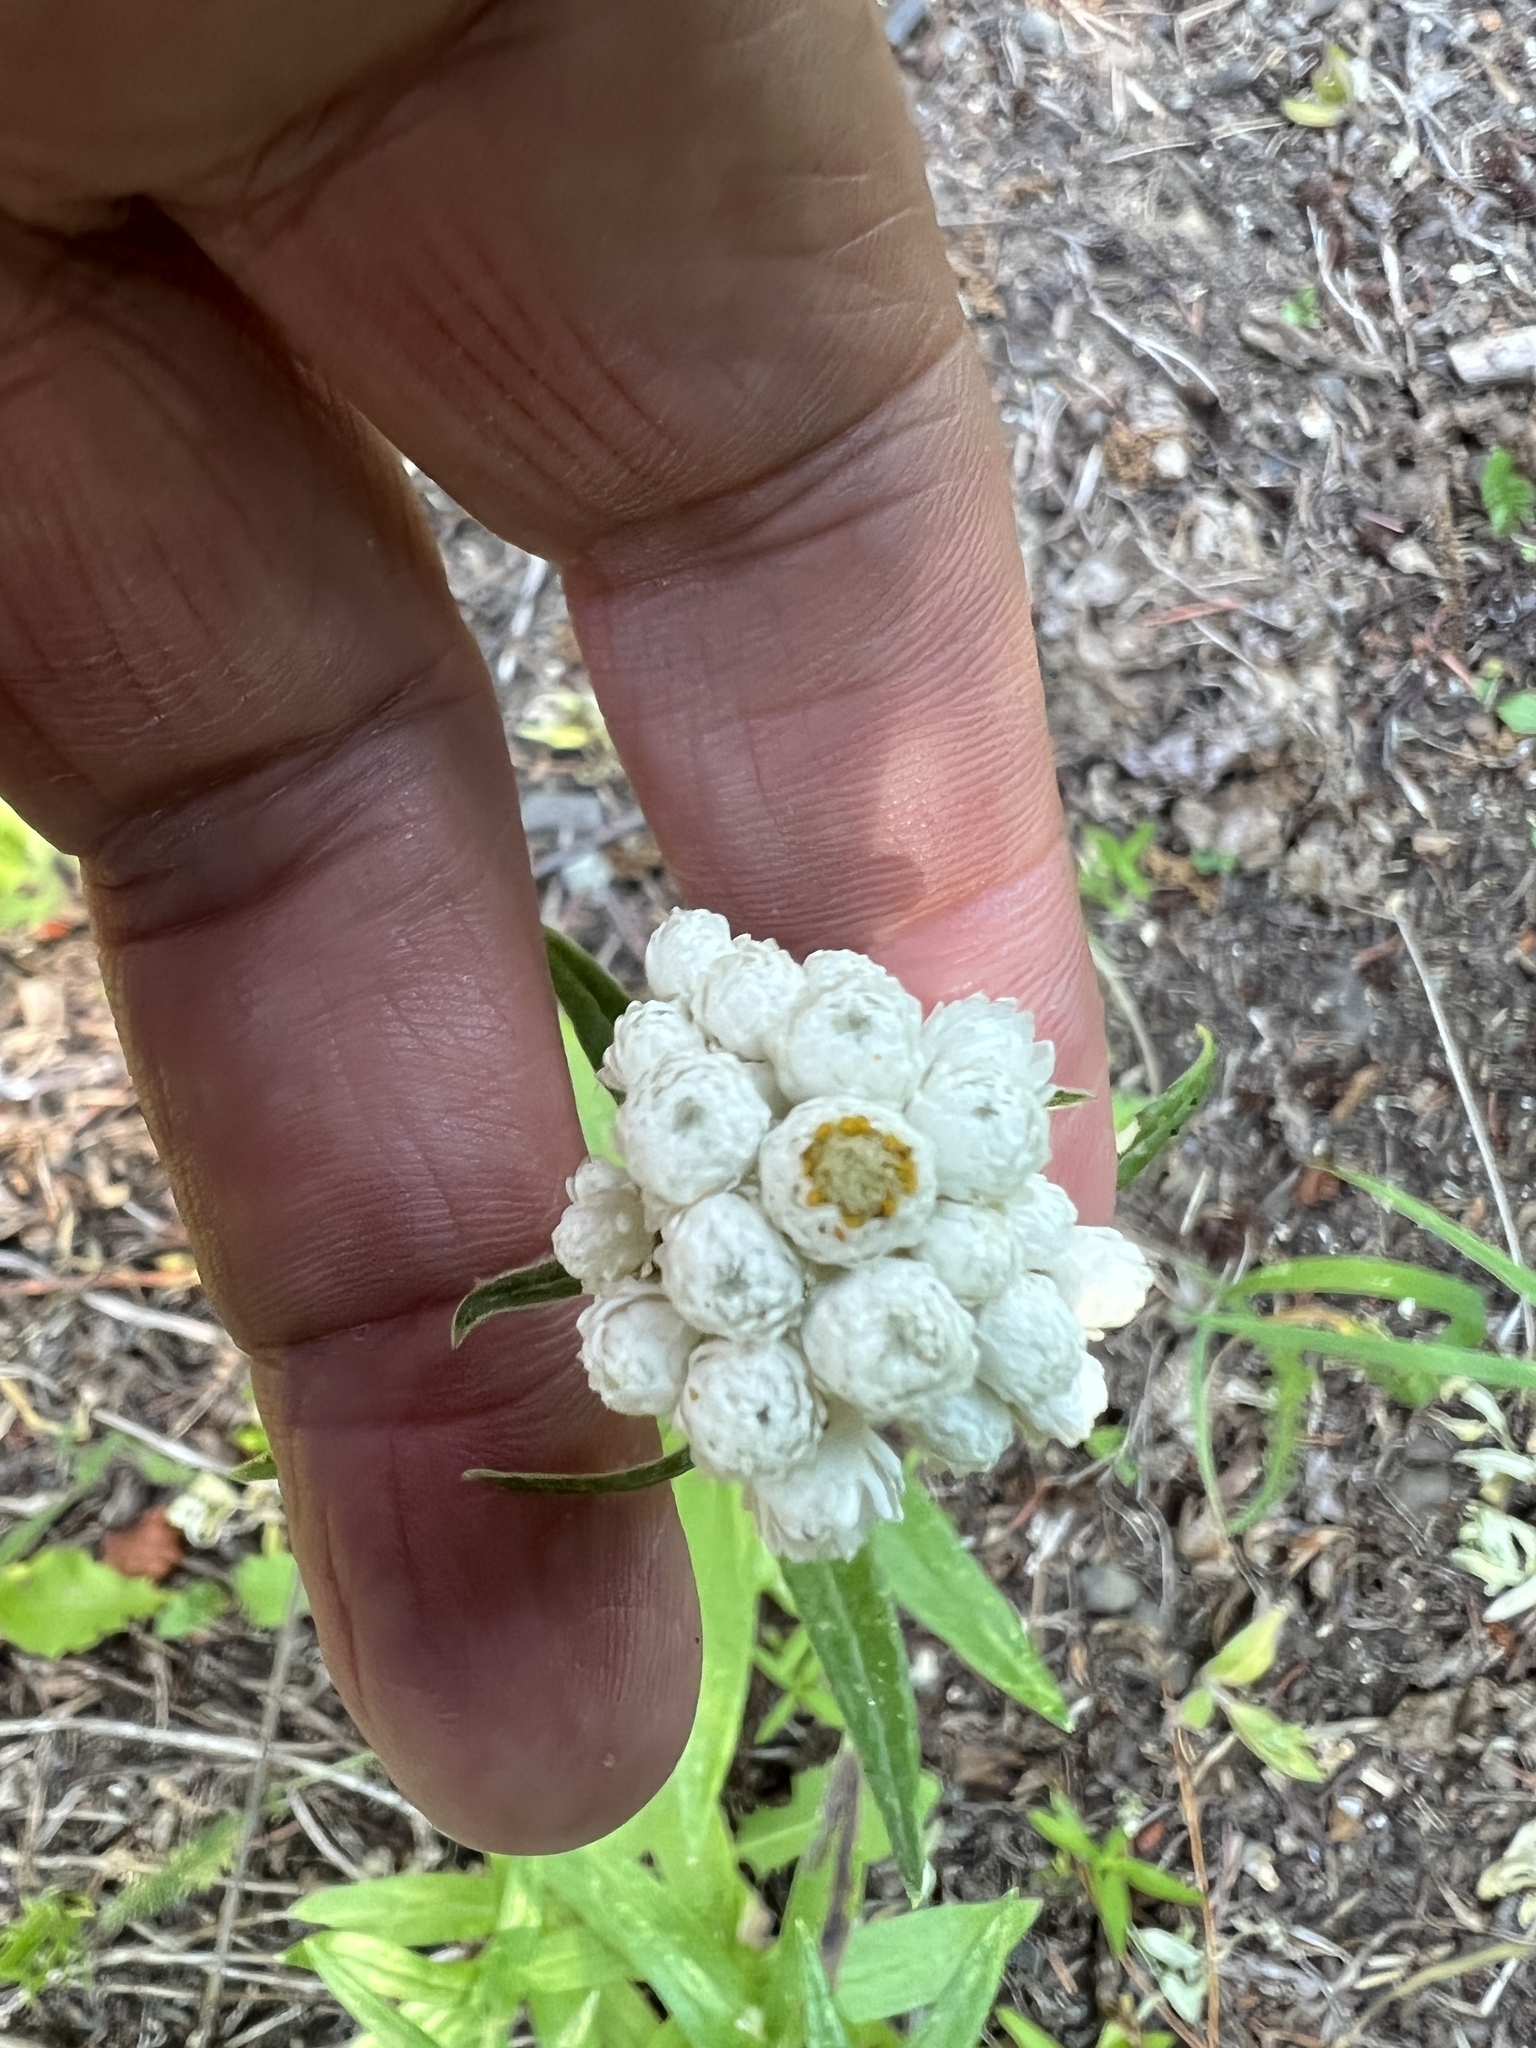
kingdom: Plantae
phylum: Tracheophyta
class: Magnoliopsida
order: Asterales
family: Asteraceae
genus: Anaphalis
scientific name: Anaphalis margaritacea
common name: Pearly everlasting
